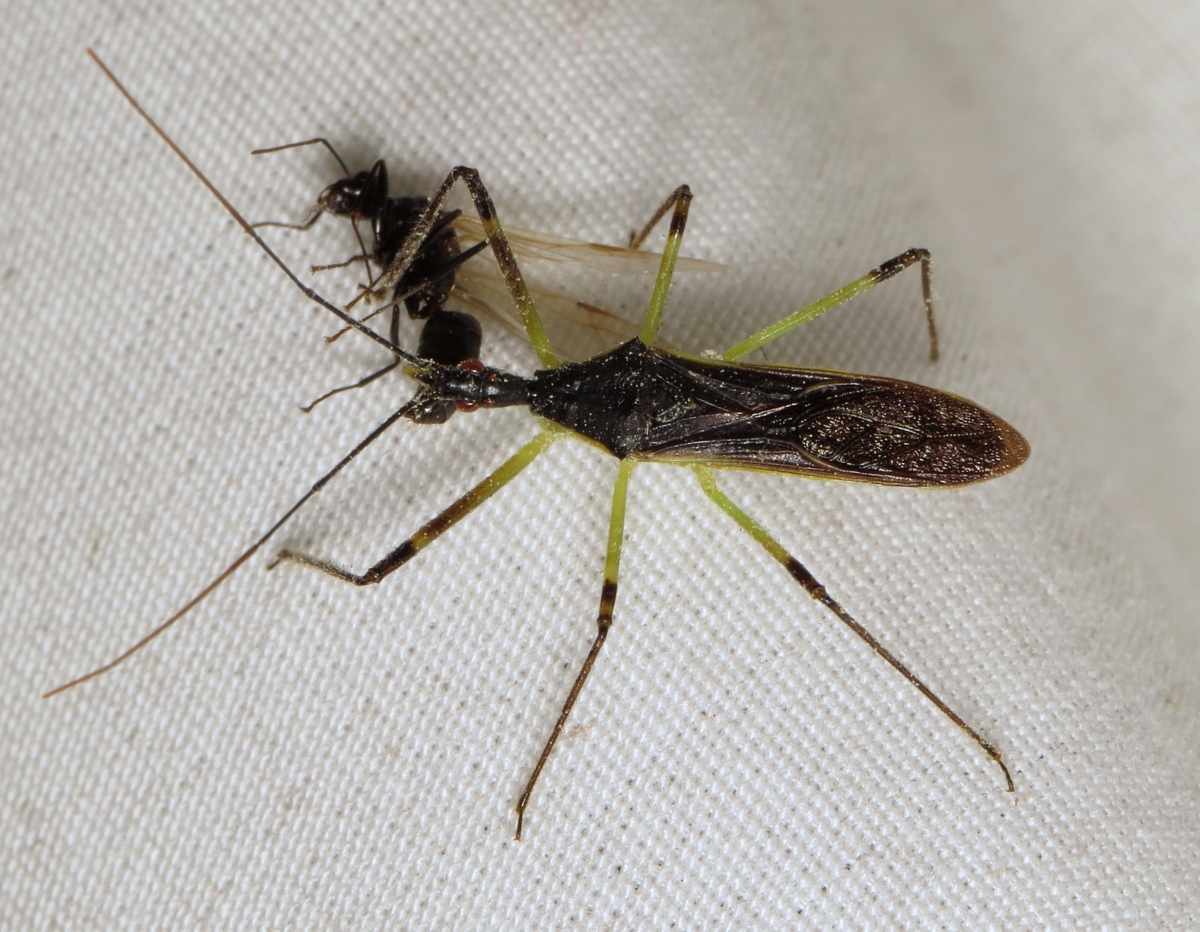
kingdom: Animalia
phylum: Arthropoda
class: Insecta
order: Hemiptera
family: Reduviidae
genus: Zelus
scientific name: Zelus luridus
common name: Pale green assassin bug
